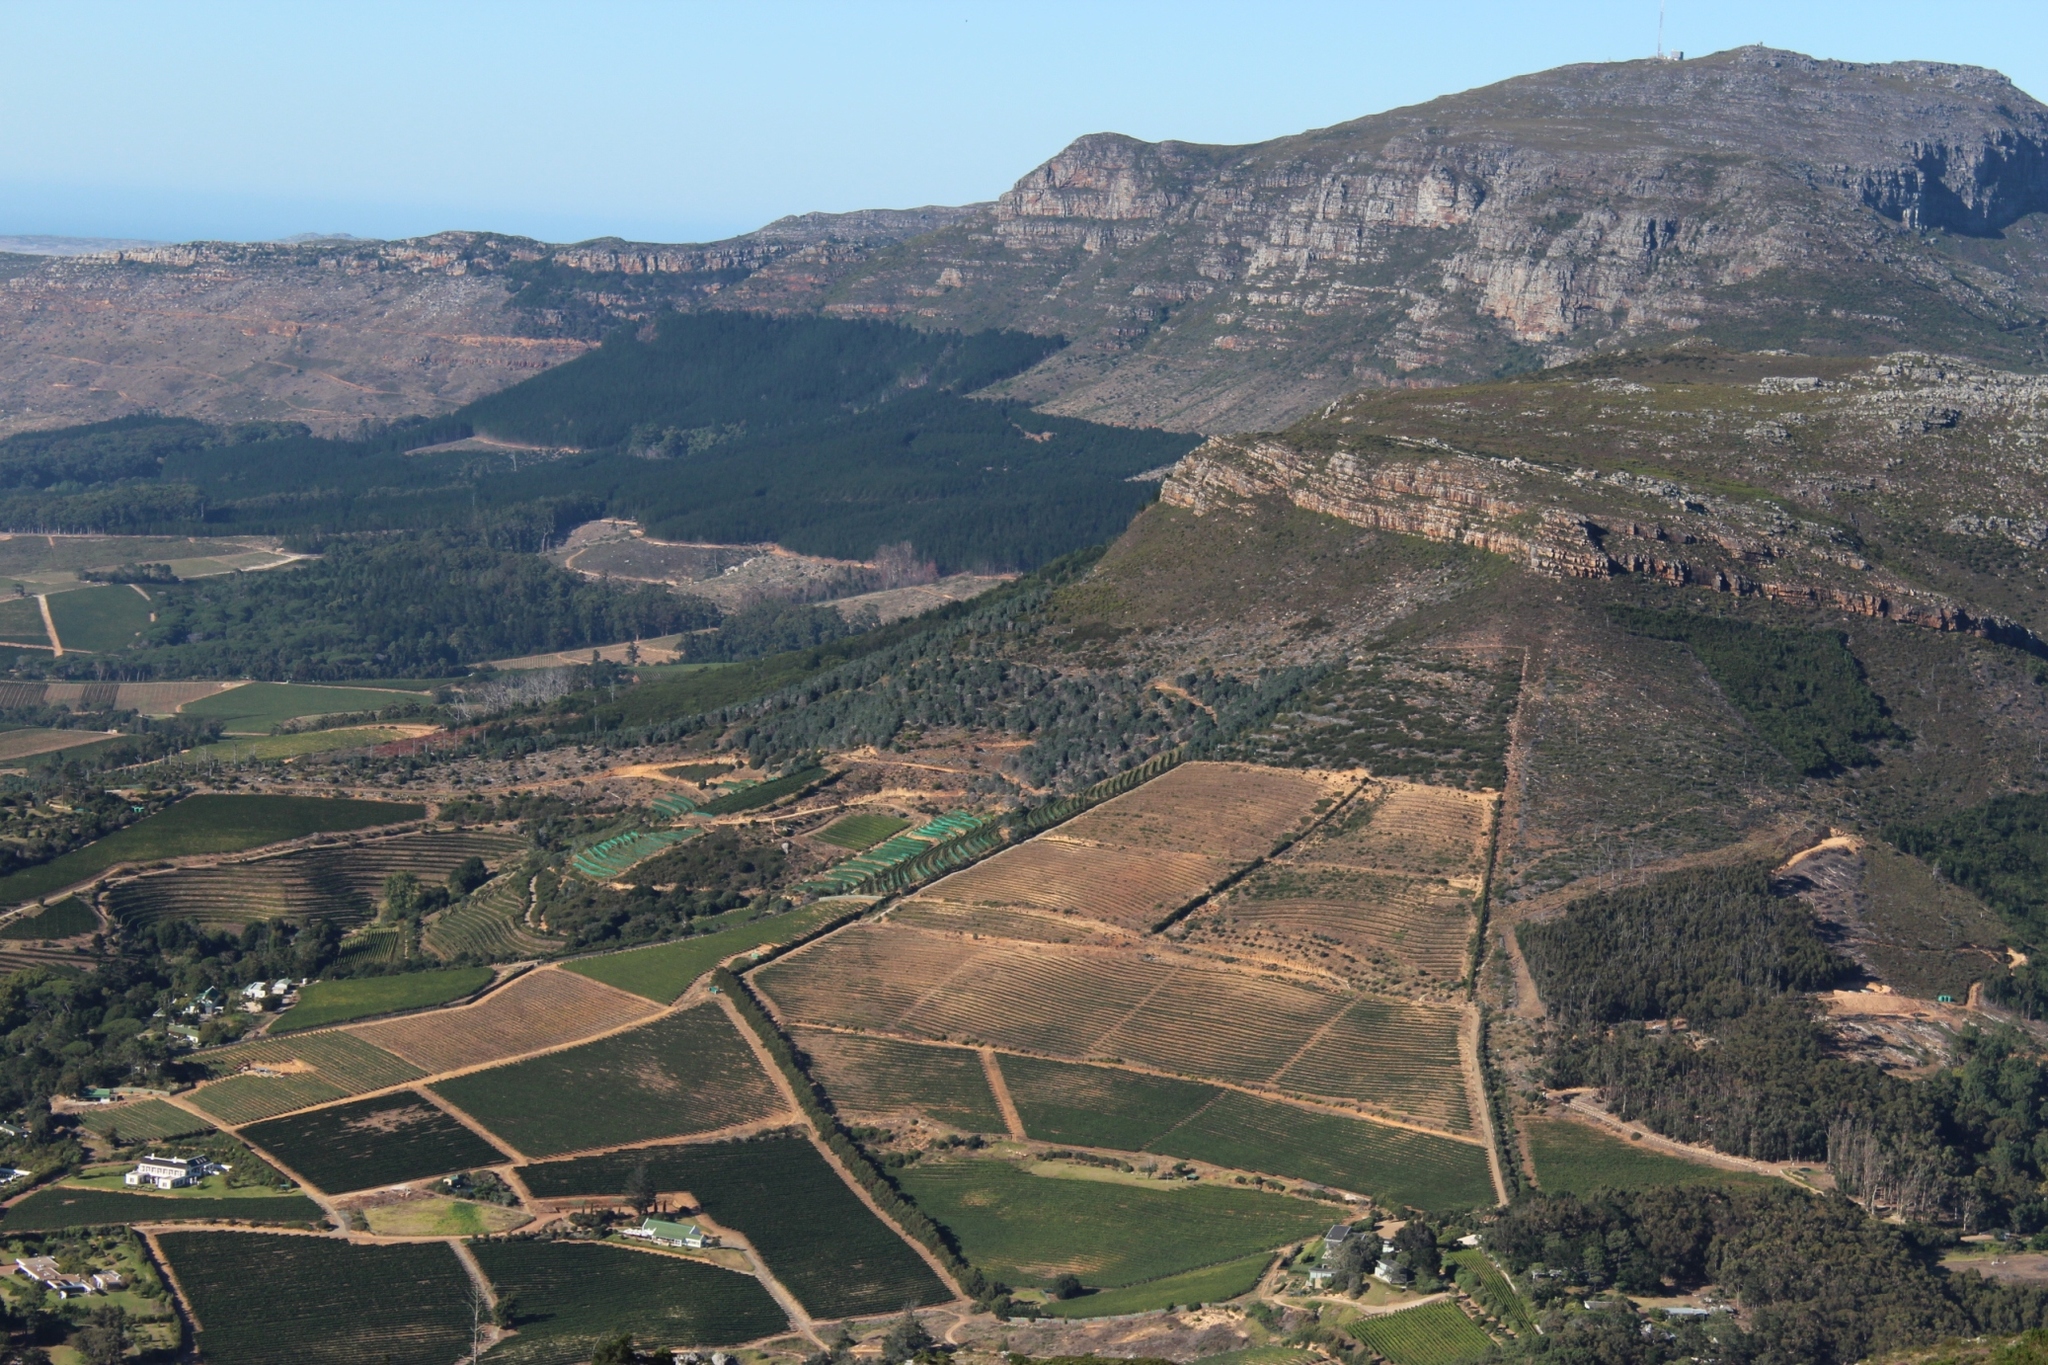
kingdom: Plantae
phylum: Tracheophyta
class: Magnoliopsida
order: Proteales
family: Proteaceae
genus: Leucadendron
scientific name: Leucadendron argenteum
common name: Cape silver tree
